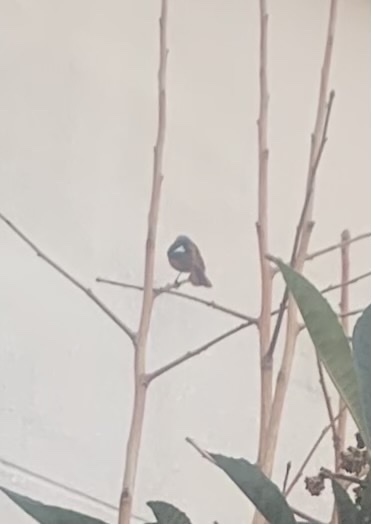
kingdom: Animalia
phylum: Chordata
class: Aves
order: Passeriformes
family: Muscicapidae
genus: Phoenicurus
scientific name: Phoenicurus auroreus
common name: Daurian redstart
